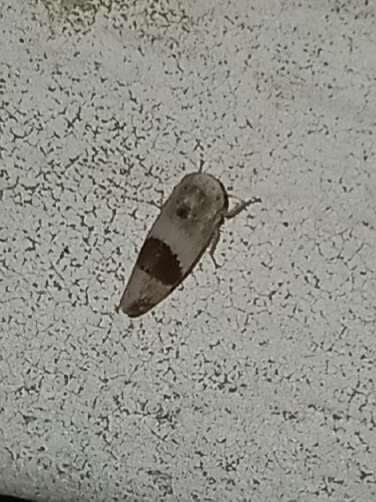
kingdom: Animalia
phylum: Arthropoda
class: Insecta
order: Hemiptera
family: Cicadellidae
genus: Norvellina
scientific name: Norvellina seminuda
